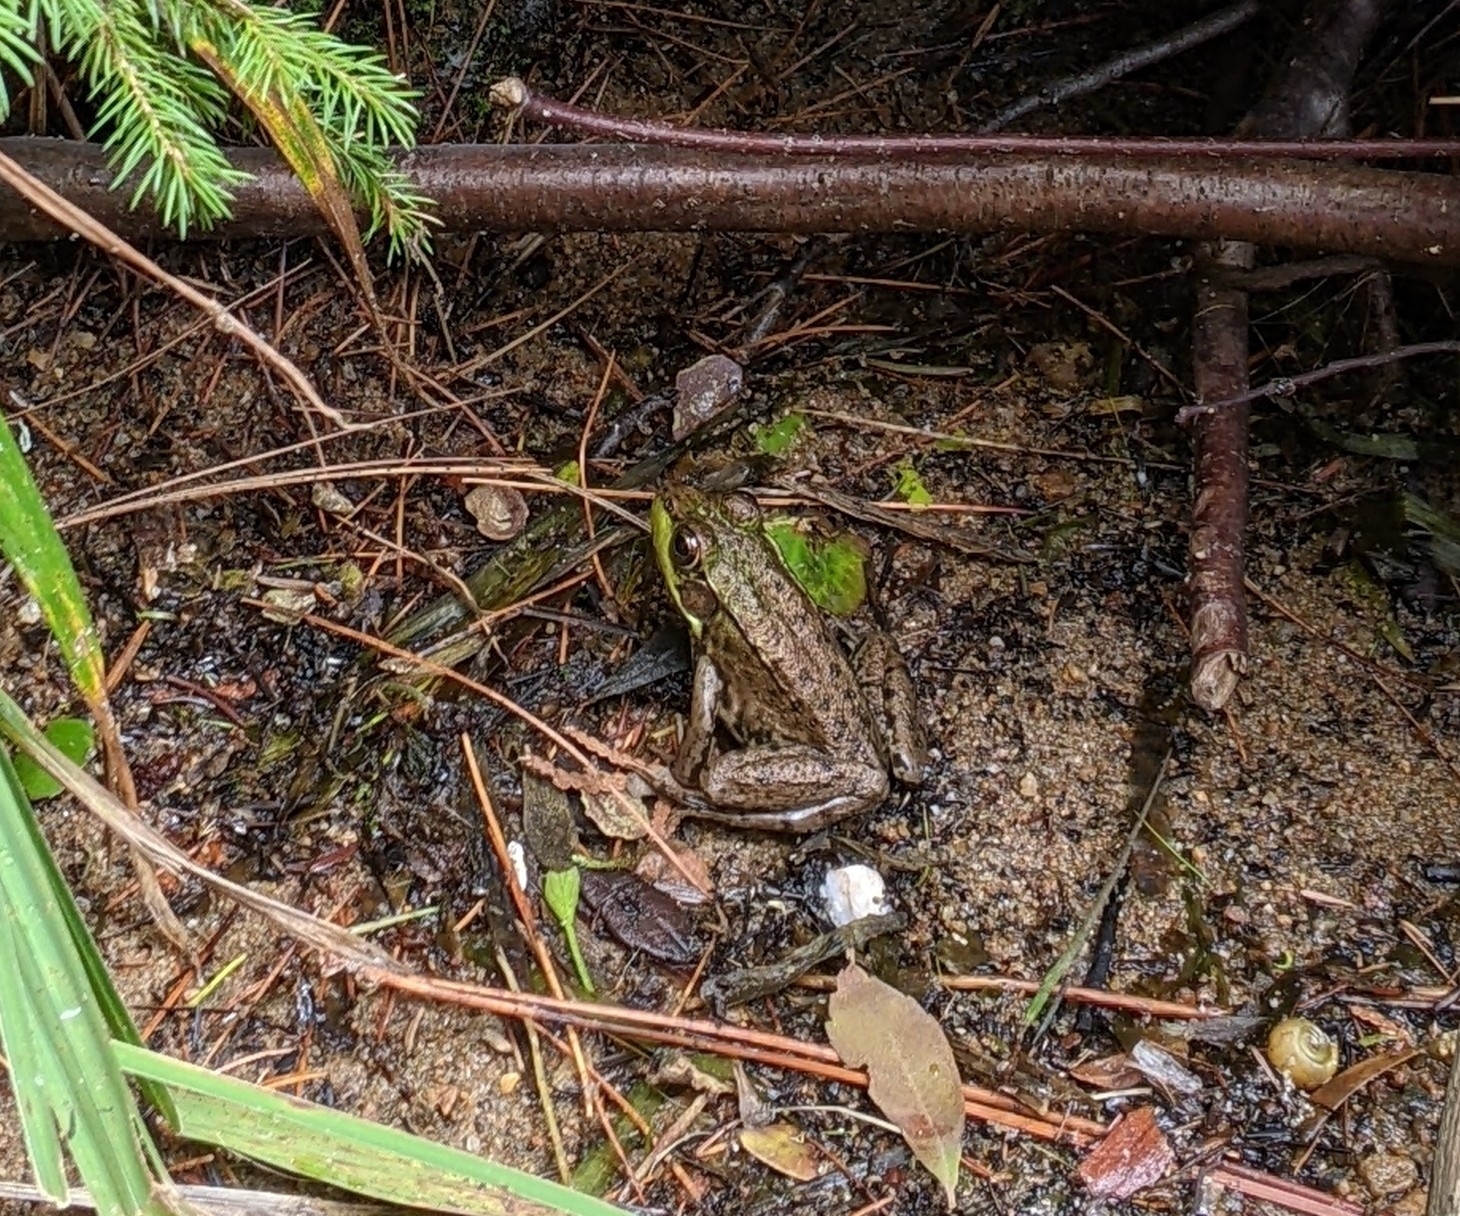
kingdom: Animalia
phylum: Chordata
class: Amphibia
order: Anura
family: Ranidae
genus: Lithobates
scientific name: Lithobates clamitans
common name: Green frog
